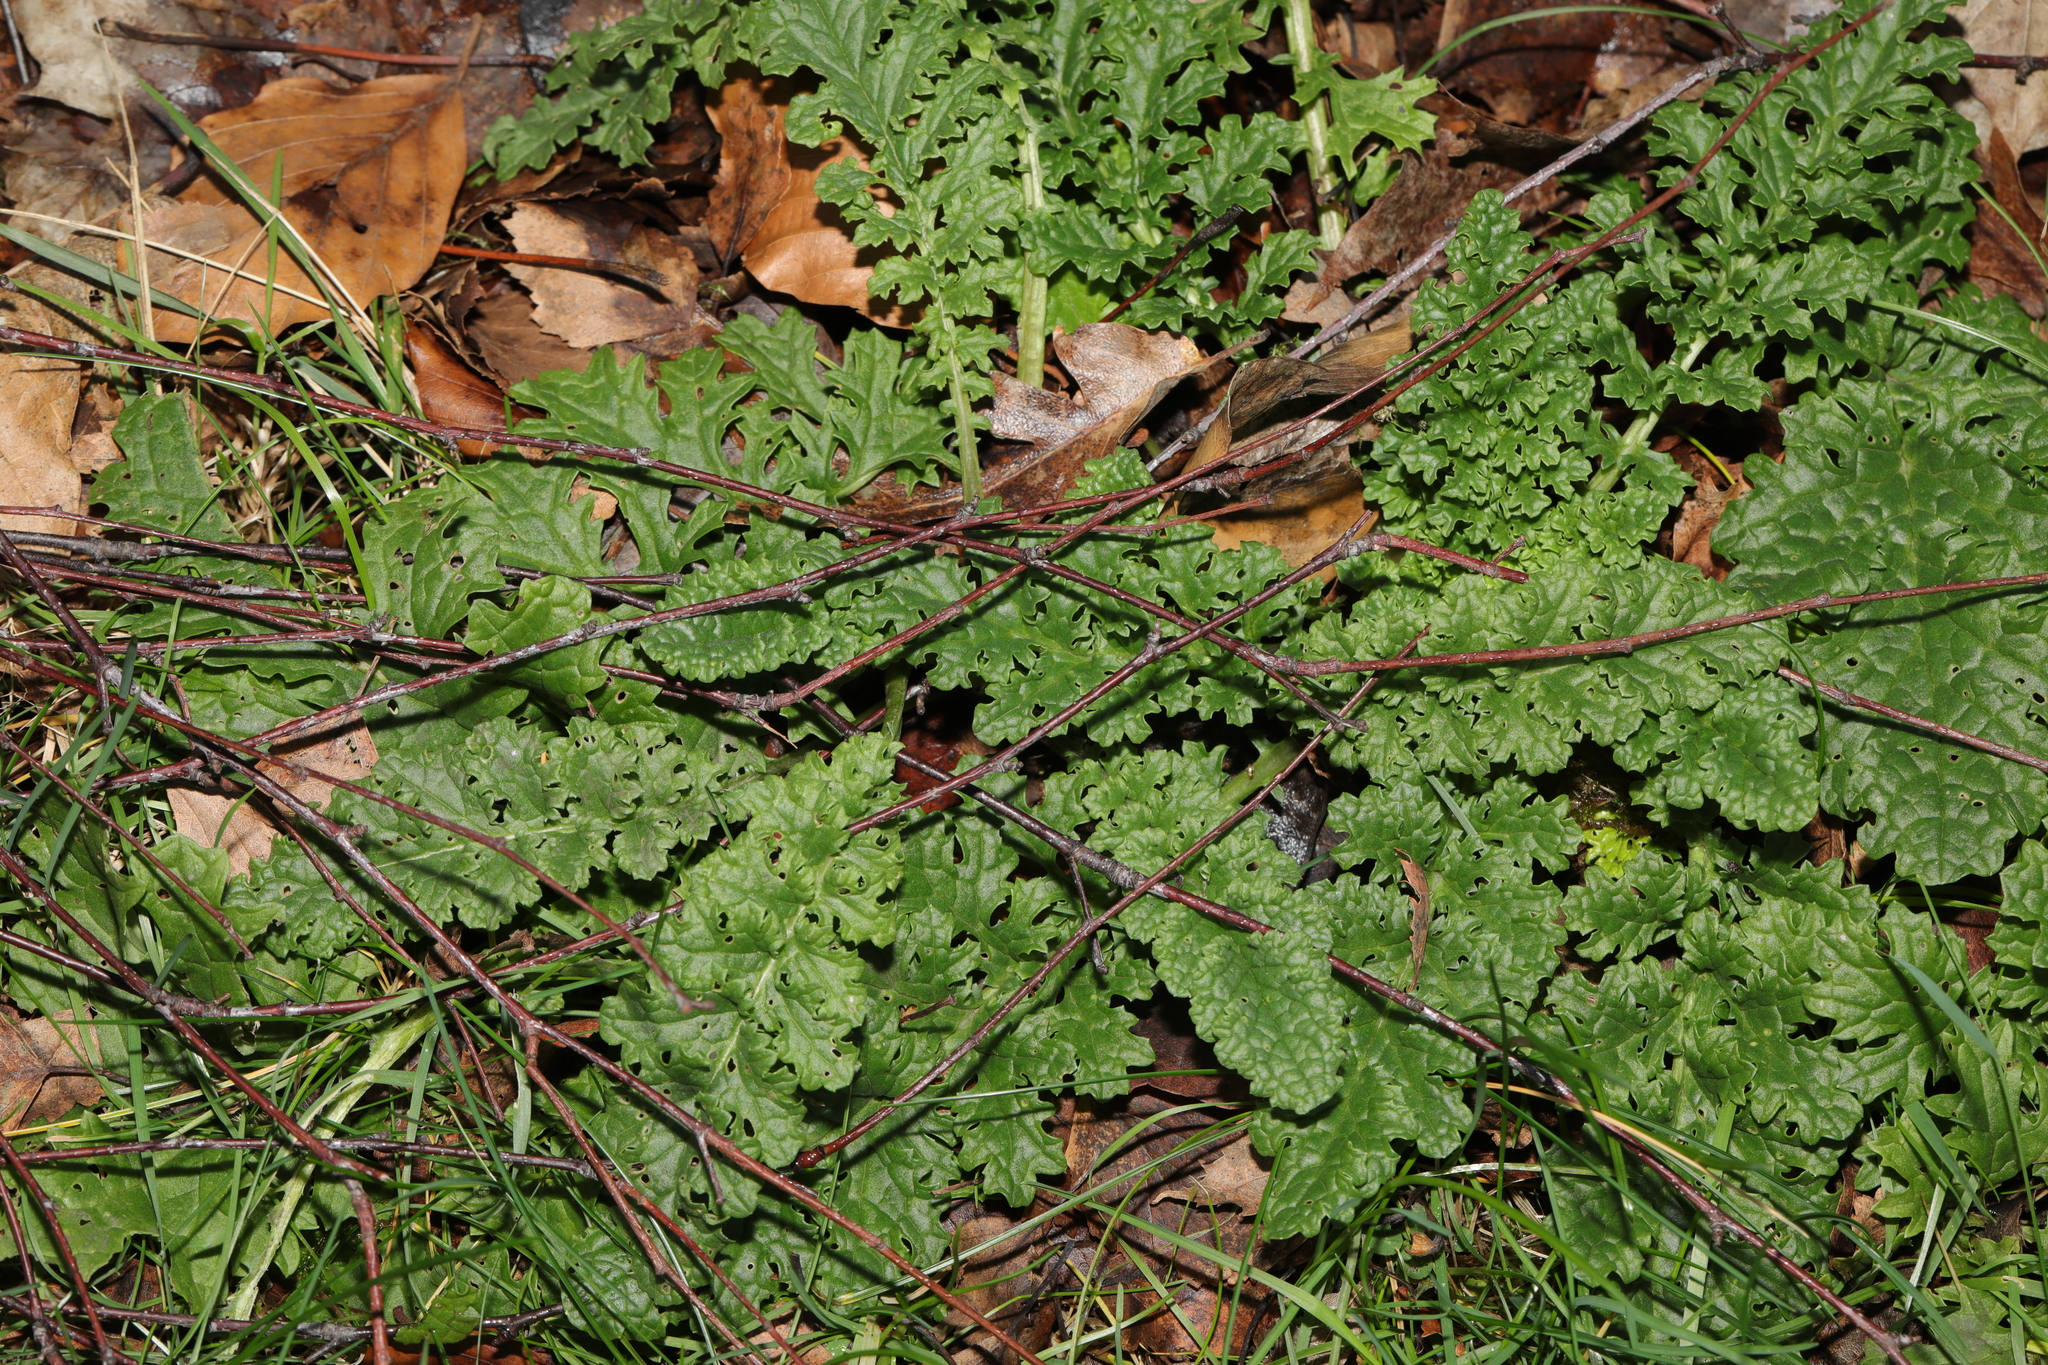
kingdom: Plantae
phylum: Tracheophyta
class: Magnoliopsida
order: Asterales
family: Asteraceae
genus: Jacobaea
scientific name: Jacobaea vulgaris
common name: Stinking willie
